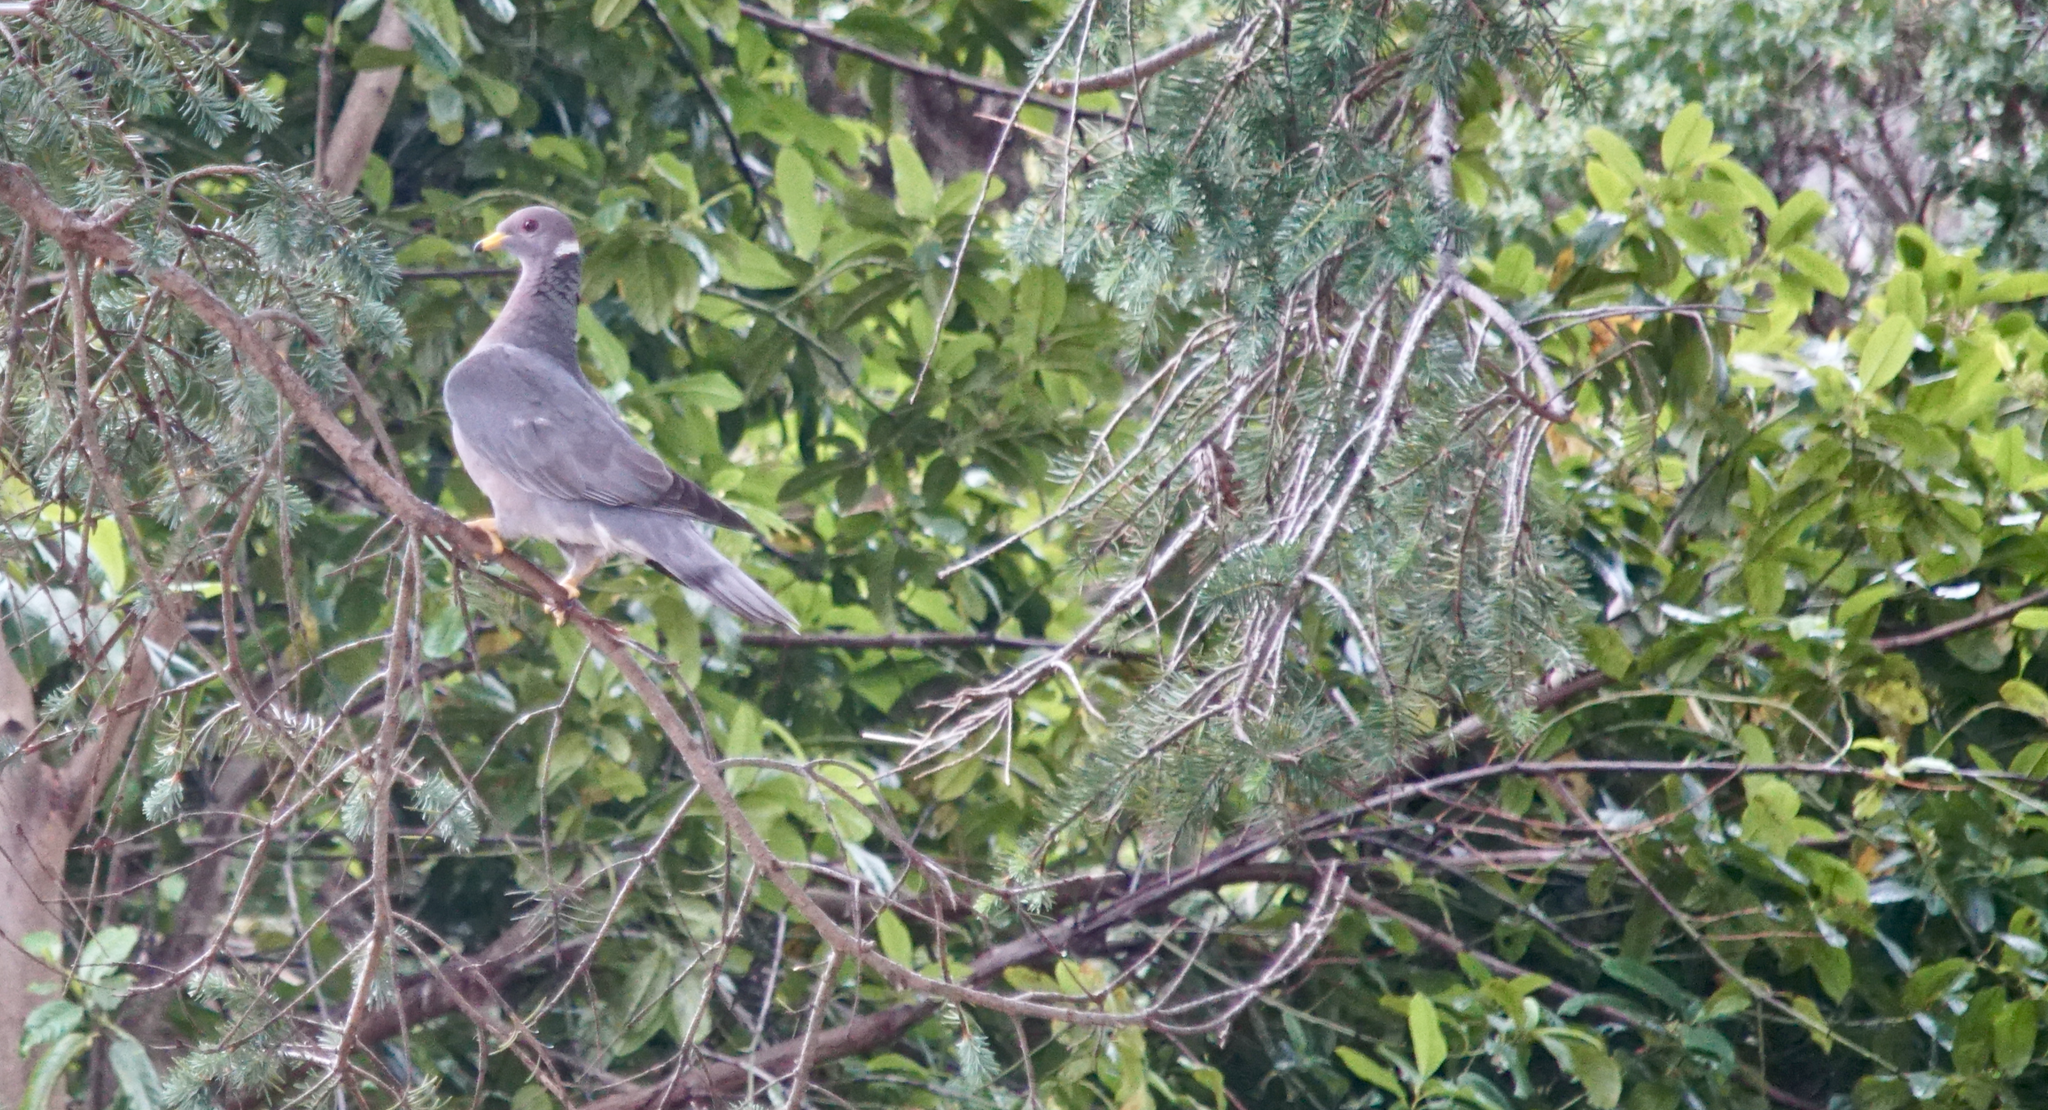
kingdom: Animalia
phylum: Chordata
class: Aves
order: Columbiformes
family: Columbidae
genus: Patagioenas
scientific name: Patagioenas fasciata
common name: Band-tailed pigeon
